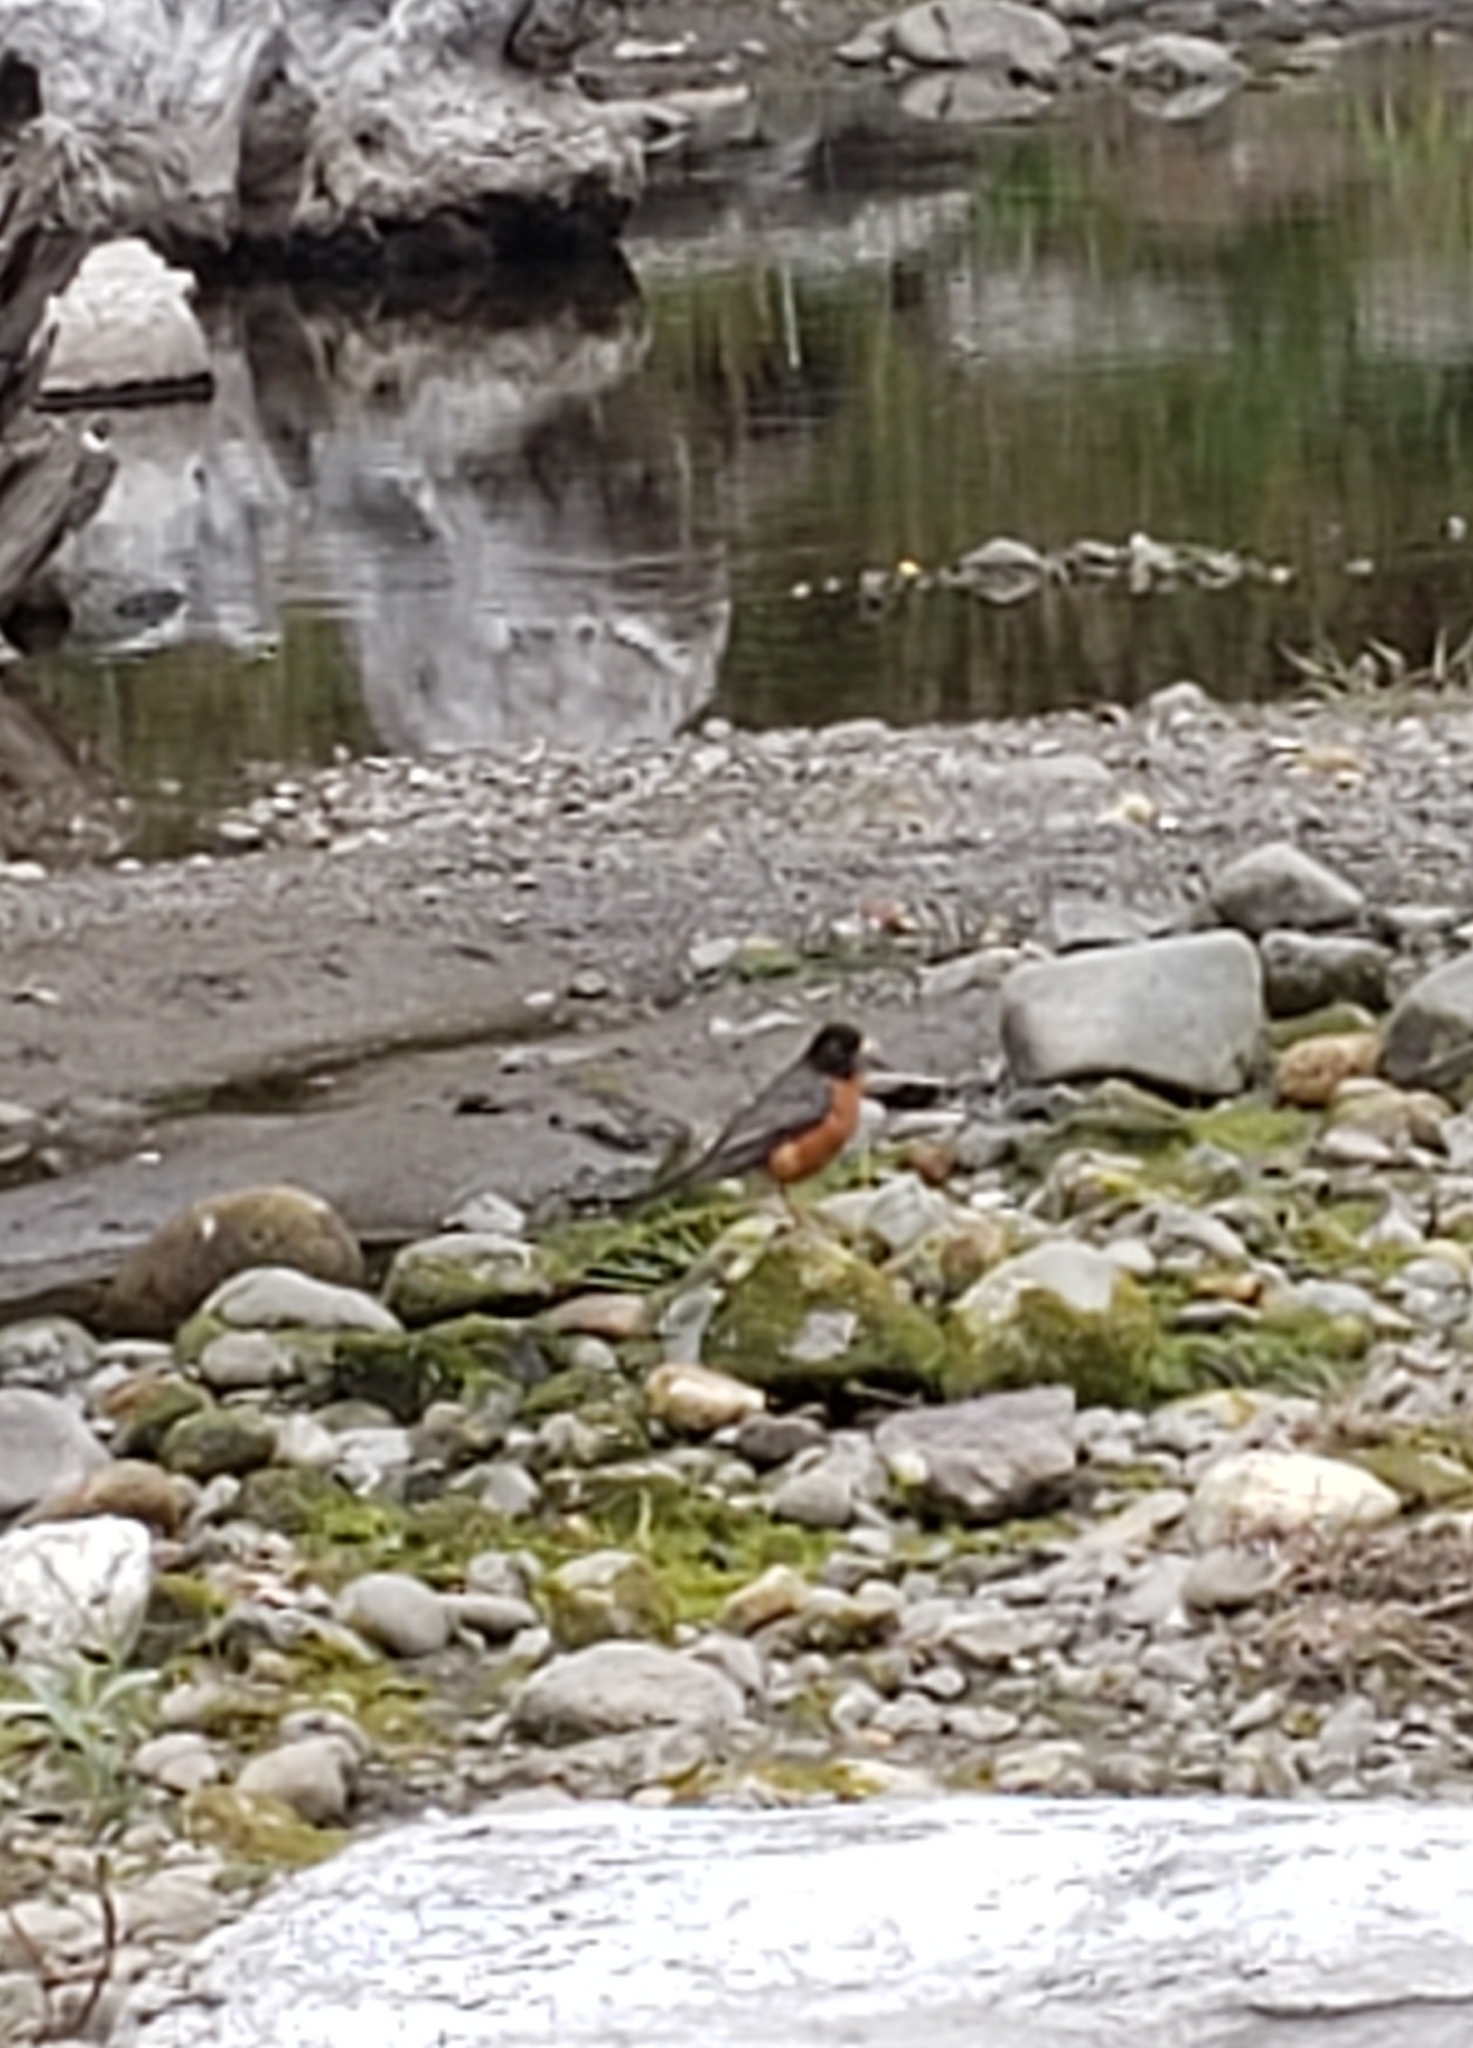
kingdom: Animalia
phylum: Chordata
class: Aves
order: Passeriformes
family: Turdidae
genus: Turdus
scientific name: Turdus migratorius
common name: American robin
